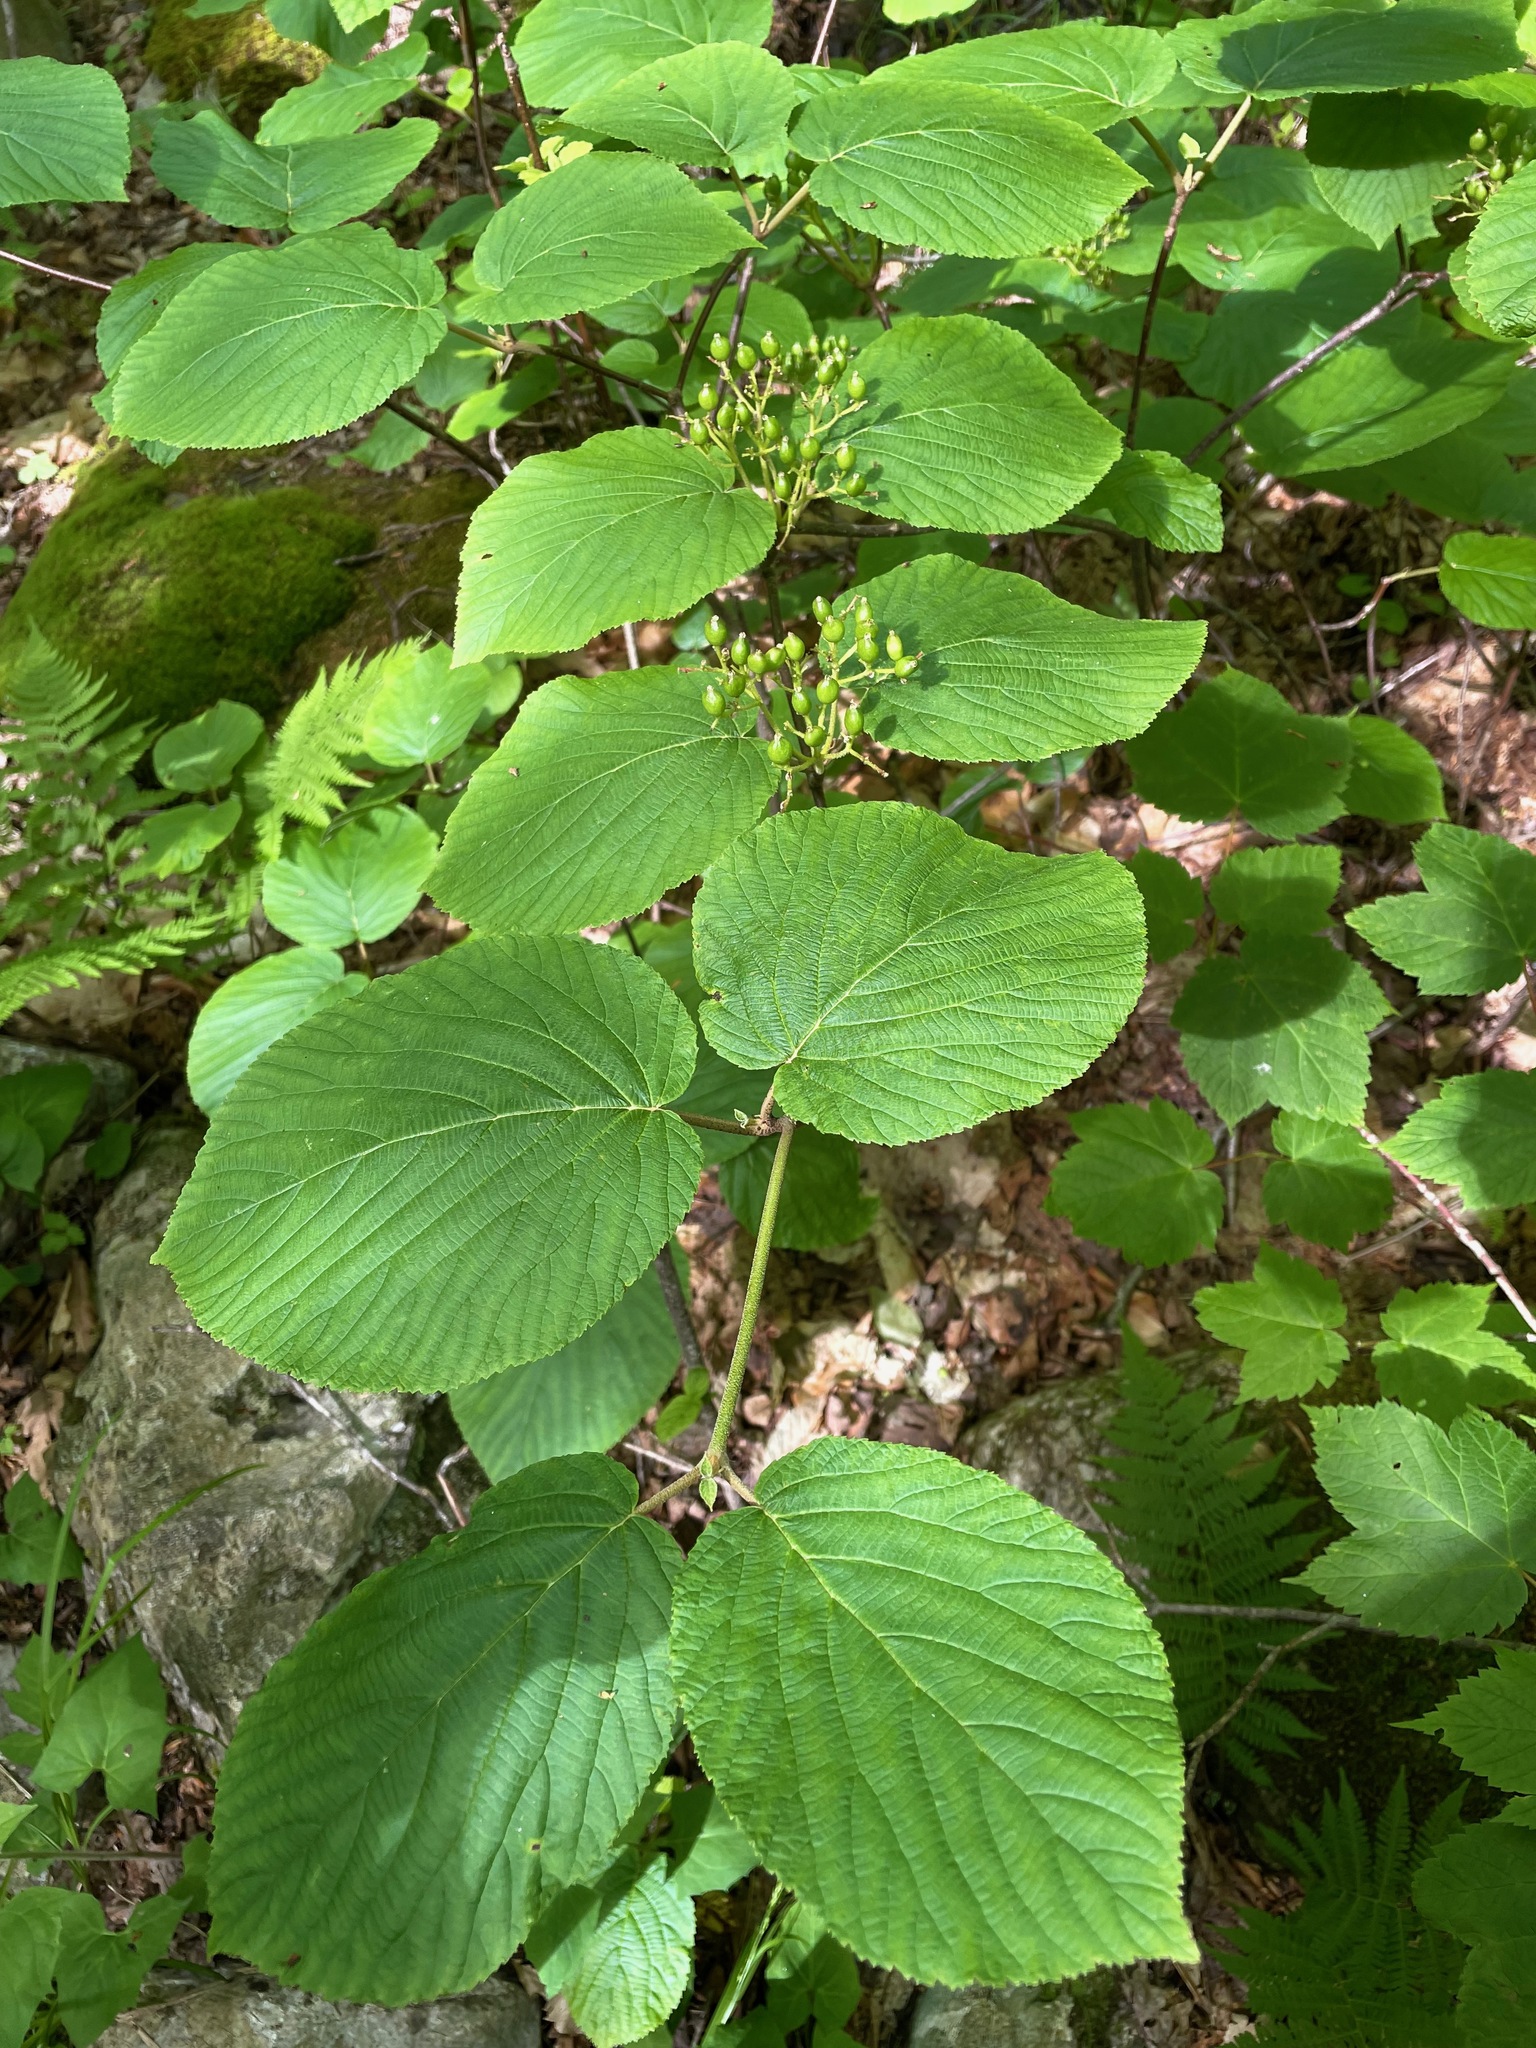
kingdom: Plantae
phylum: Tracheophyta
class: Magnoliopsida
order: Dipsacales
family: Viburnaceae
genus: Viburnum
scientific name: Viburnum lantanoides
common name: Hobblebush
